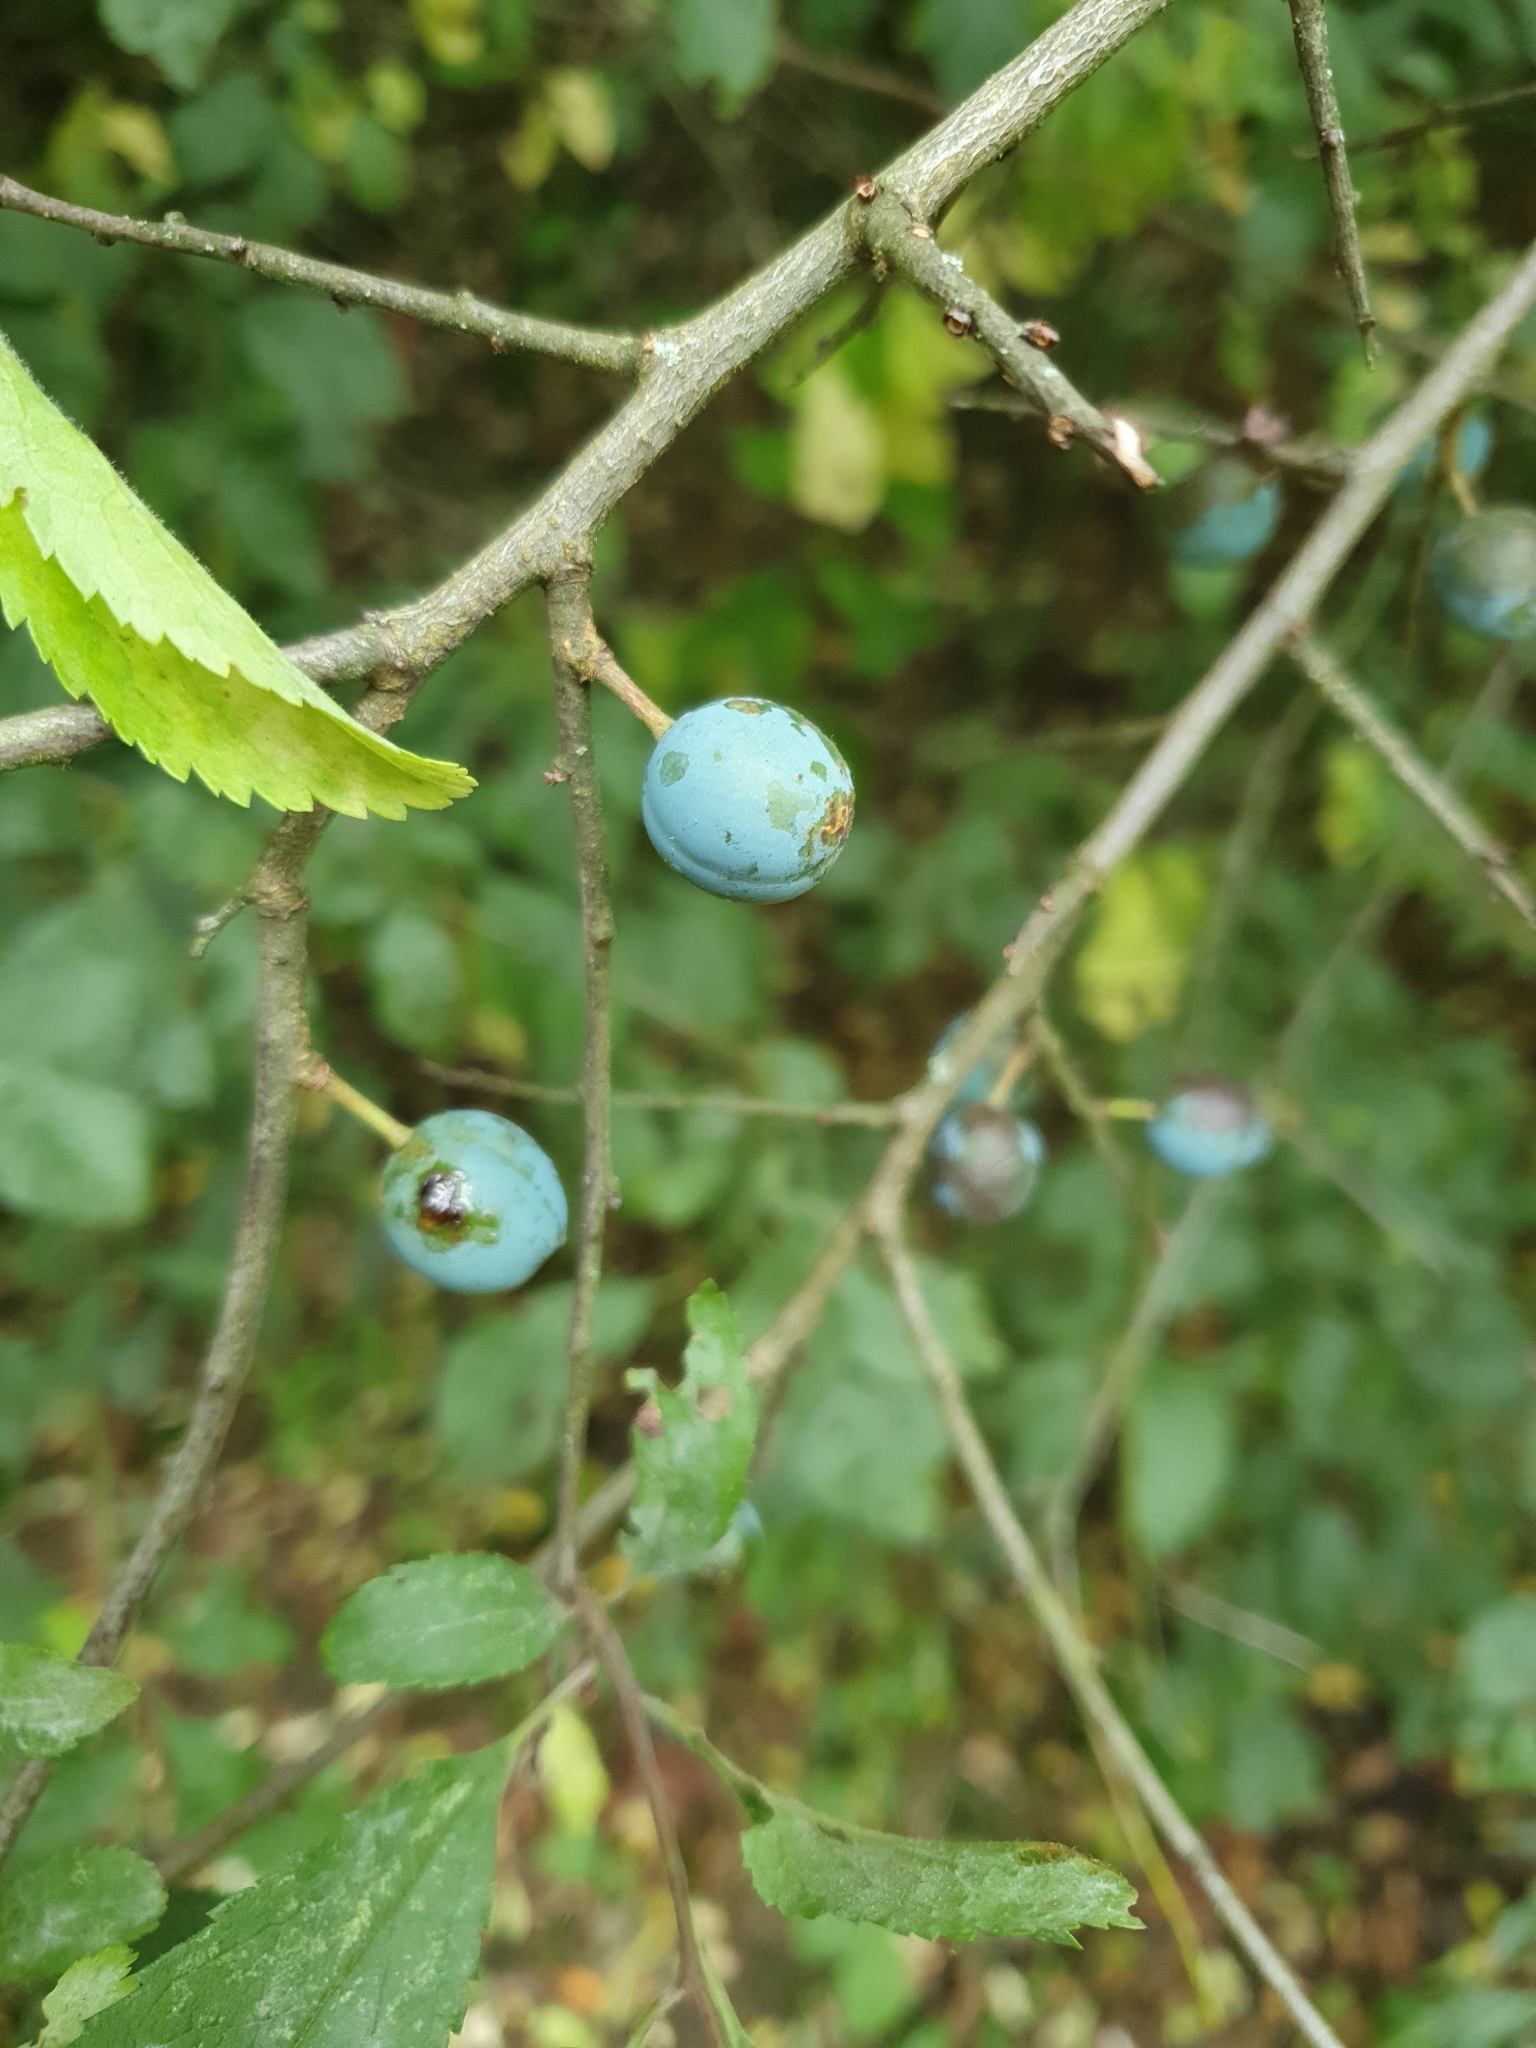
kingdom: Plantae
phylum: Tracheophyta
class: Magnoliopsida
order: Rosales
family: Rosaceae
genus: Prunus
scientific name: Prunus spinosa
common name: Blackthorn
